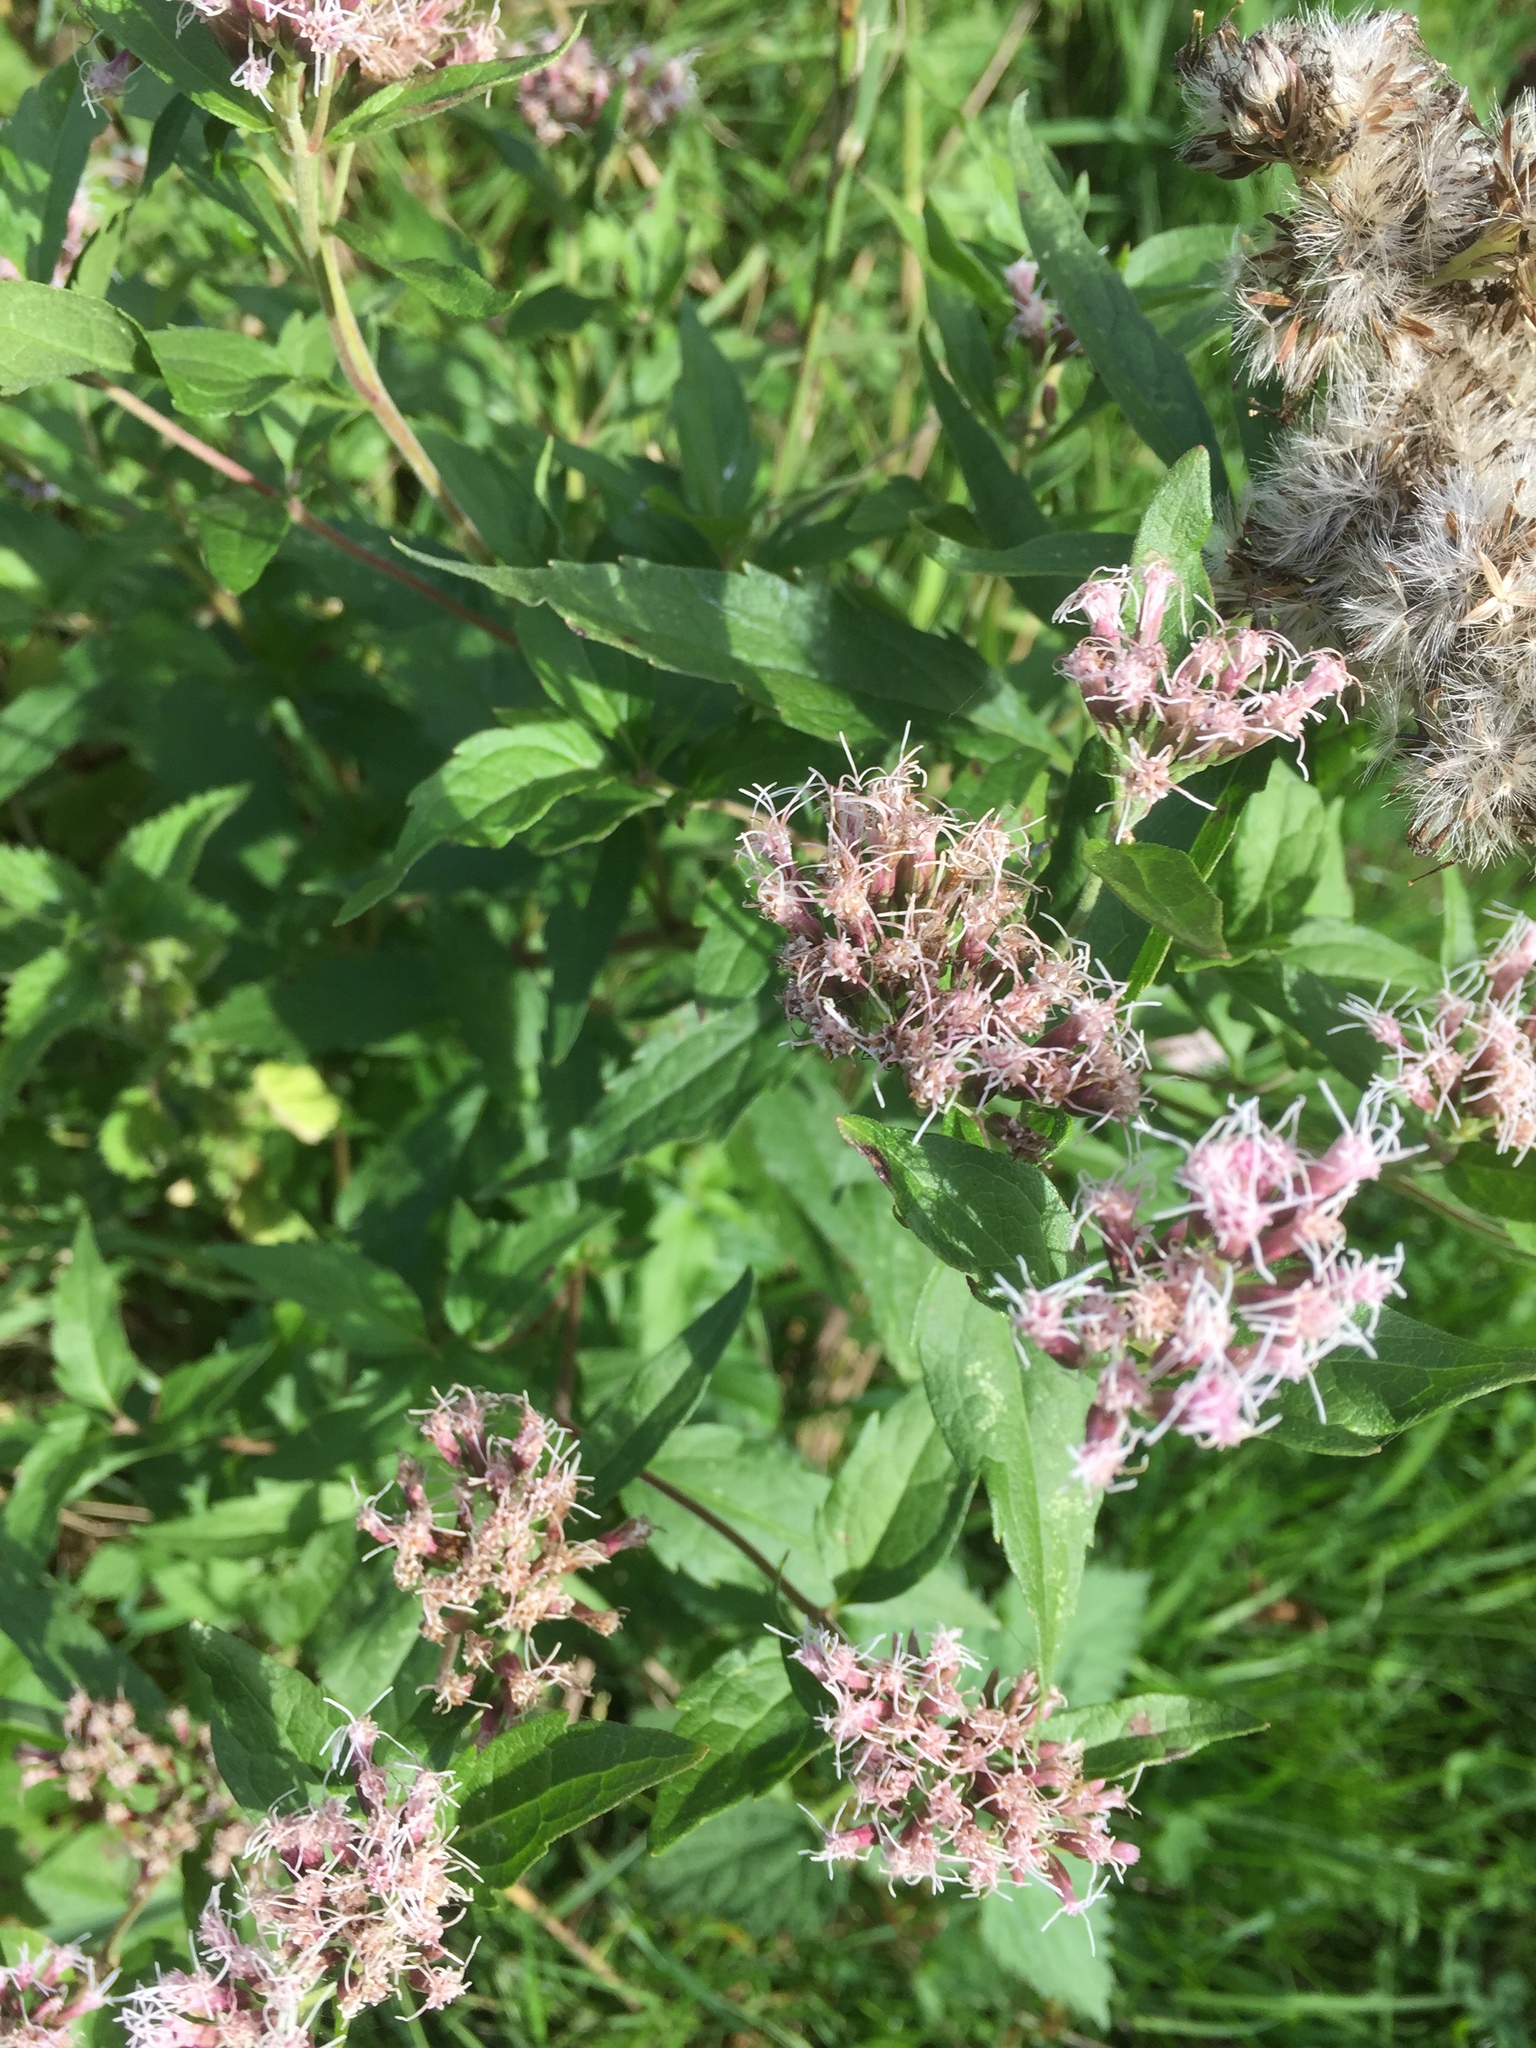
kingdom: Plantae
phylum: Tracheophyta
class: Magnoliopsida
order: Asterales
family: Asteraceae
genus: Eupatorium
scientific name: Eupatorium cannabinum
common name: Hemp-agrimony
